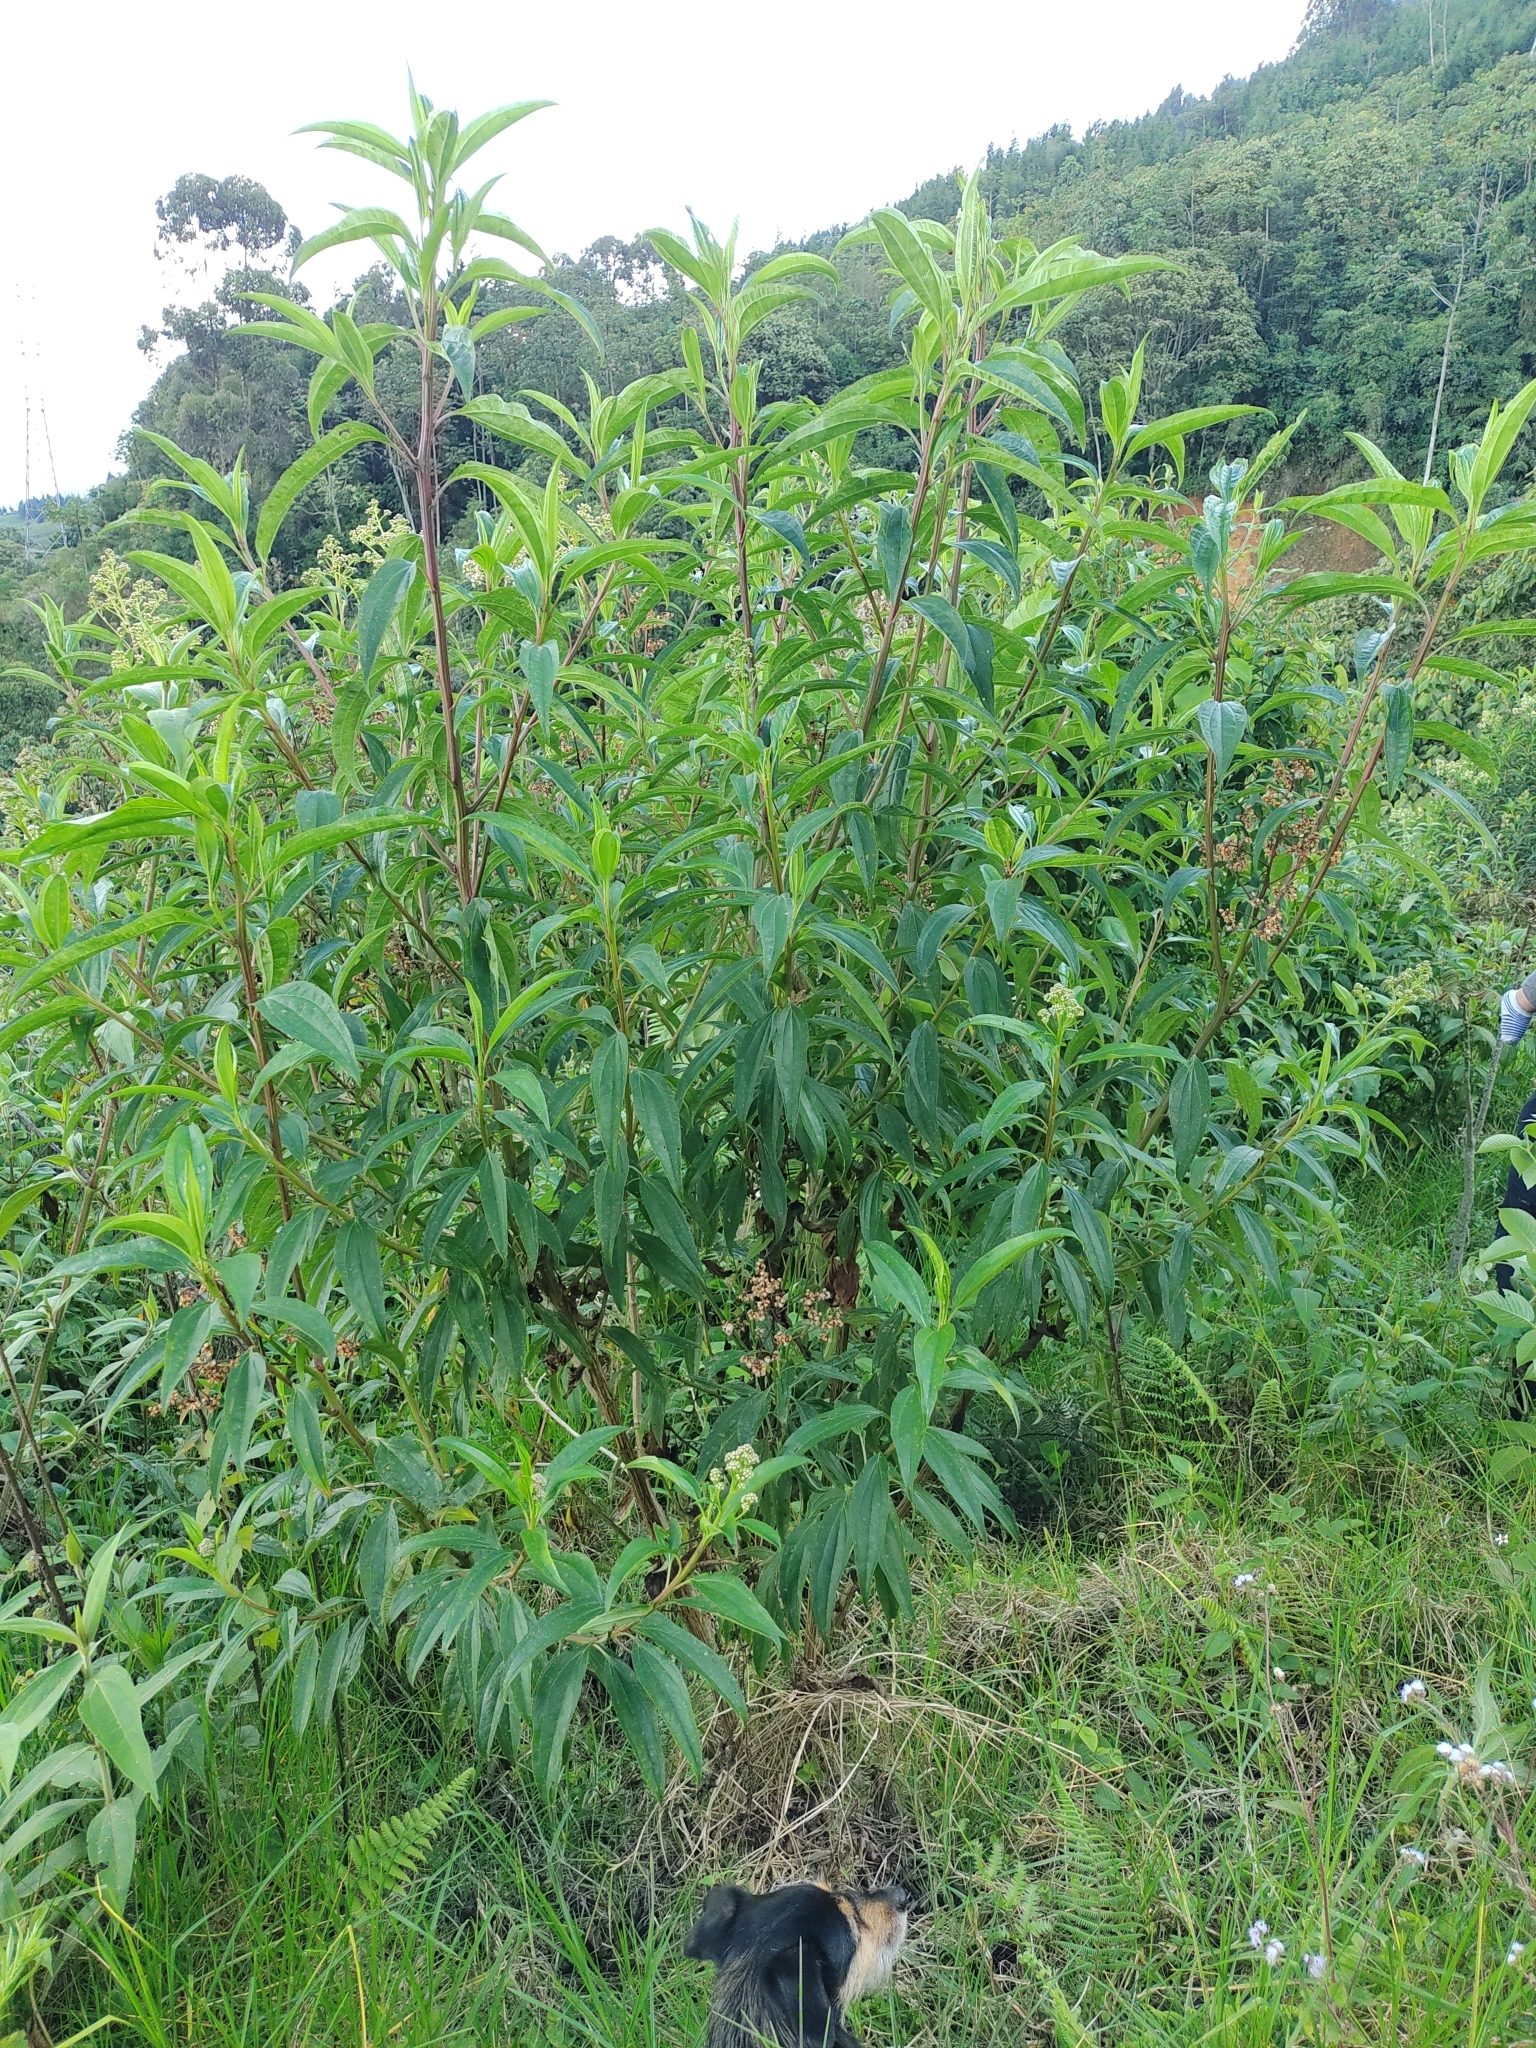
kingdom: Plantae
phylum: Tracheophyta
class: Magnoliopsida
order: Asterales
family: Asteraceae
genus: Baccharis
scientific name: Baccharis latifolia
